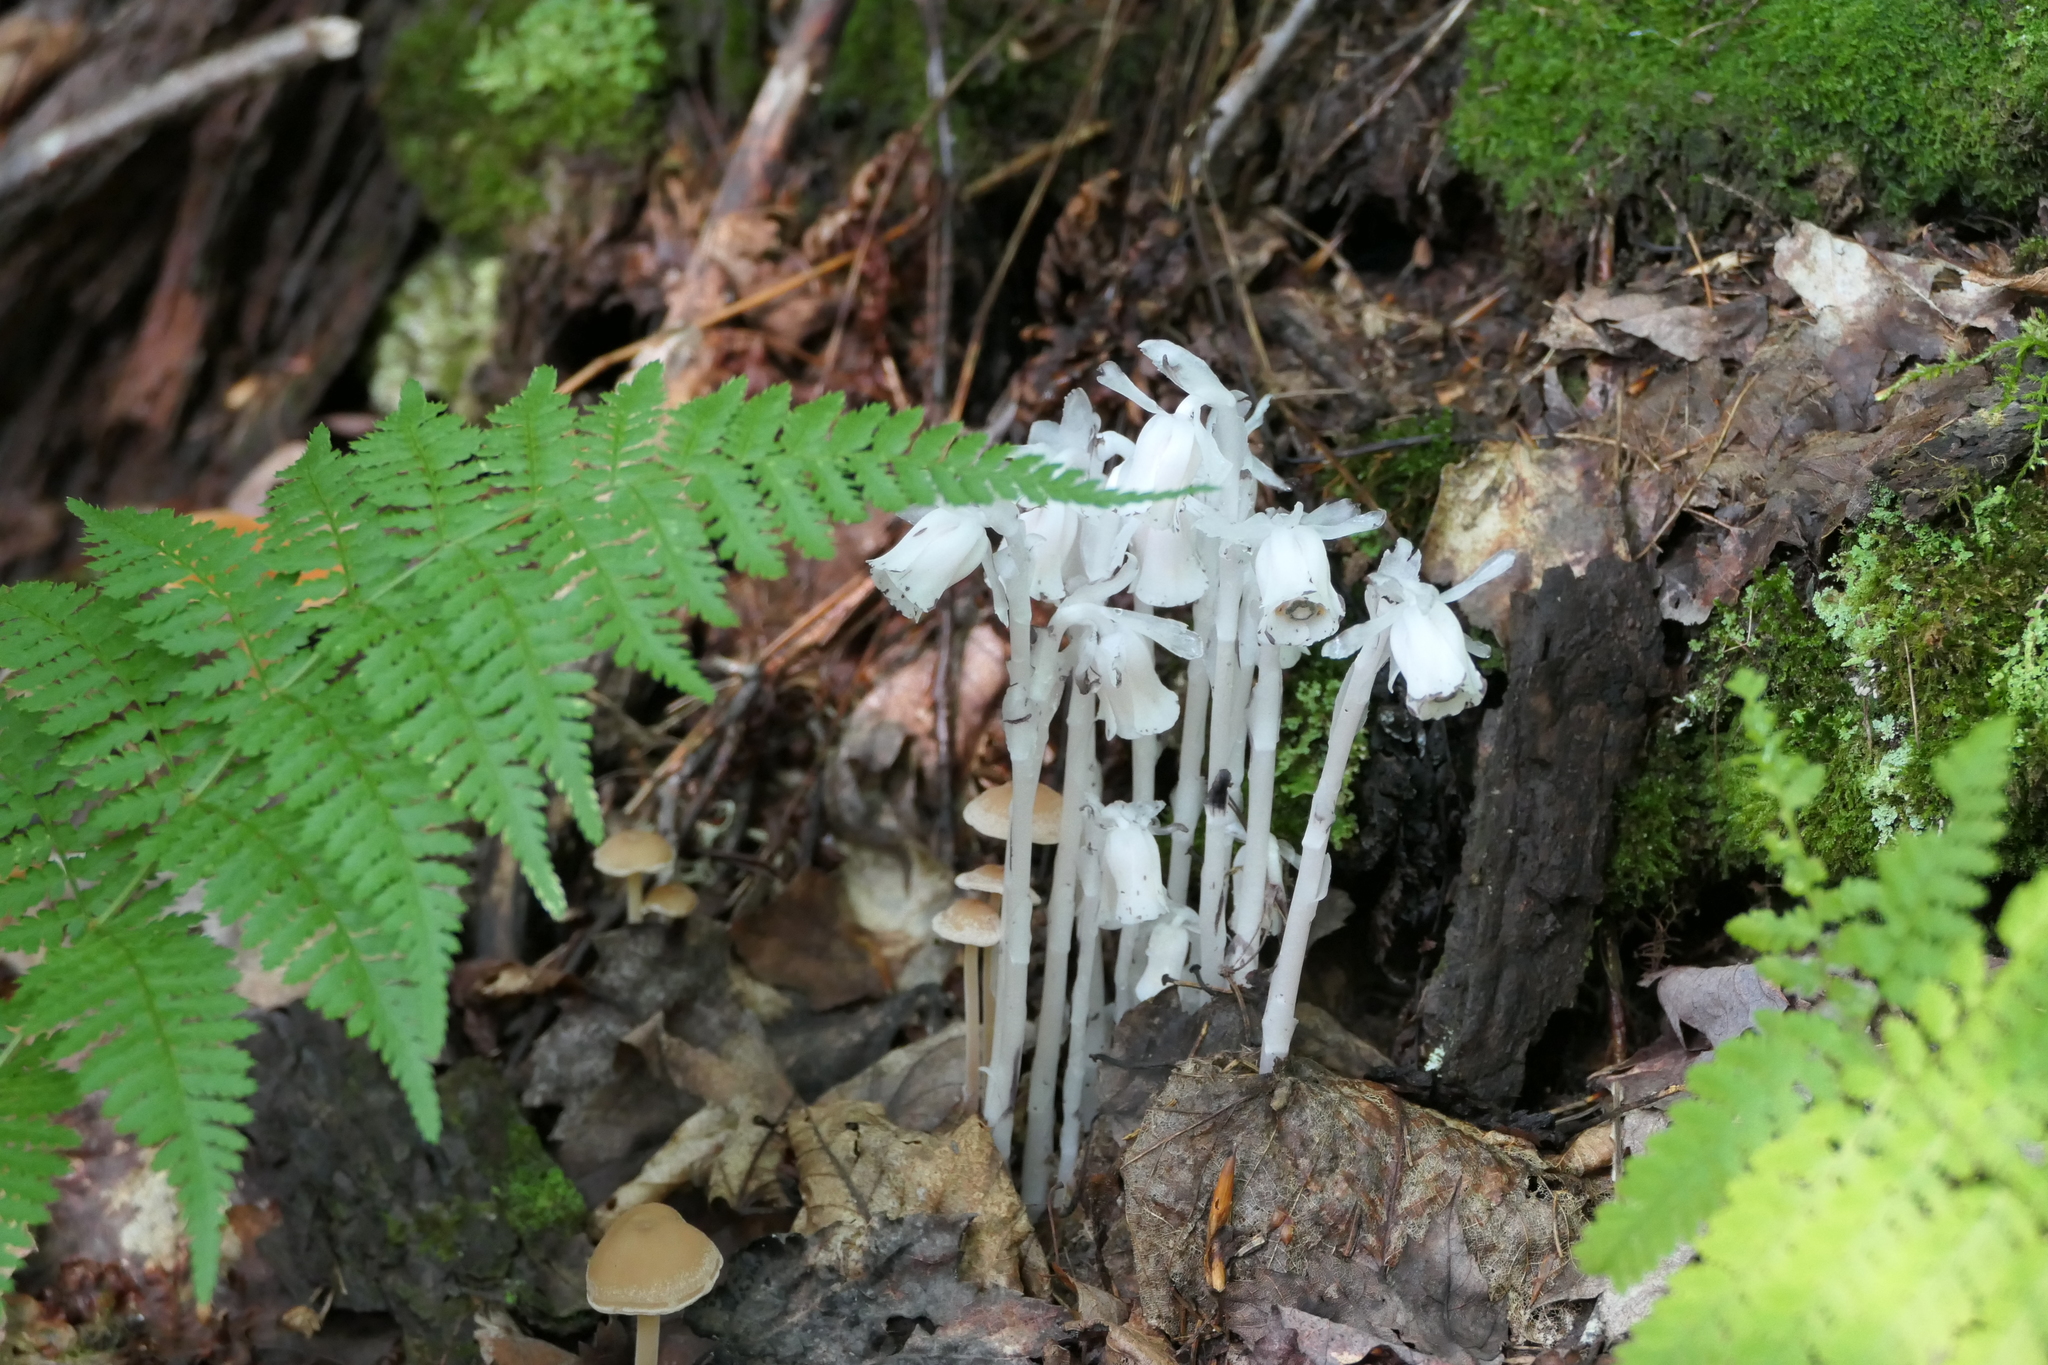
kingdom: Plantae
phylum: Tracheophyta
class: Magnoliopsida
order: Ericales
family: Ericaceae
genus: Monotropa
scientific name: Monotropa uniflora
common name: Convulsion root
